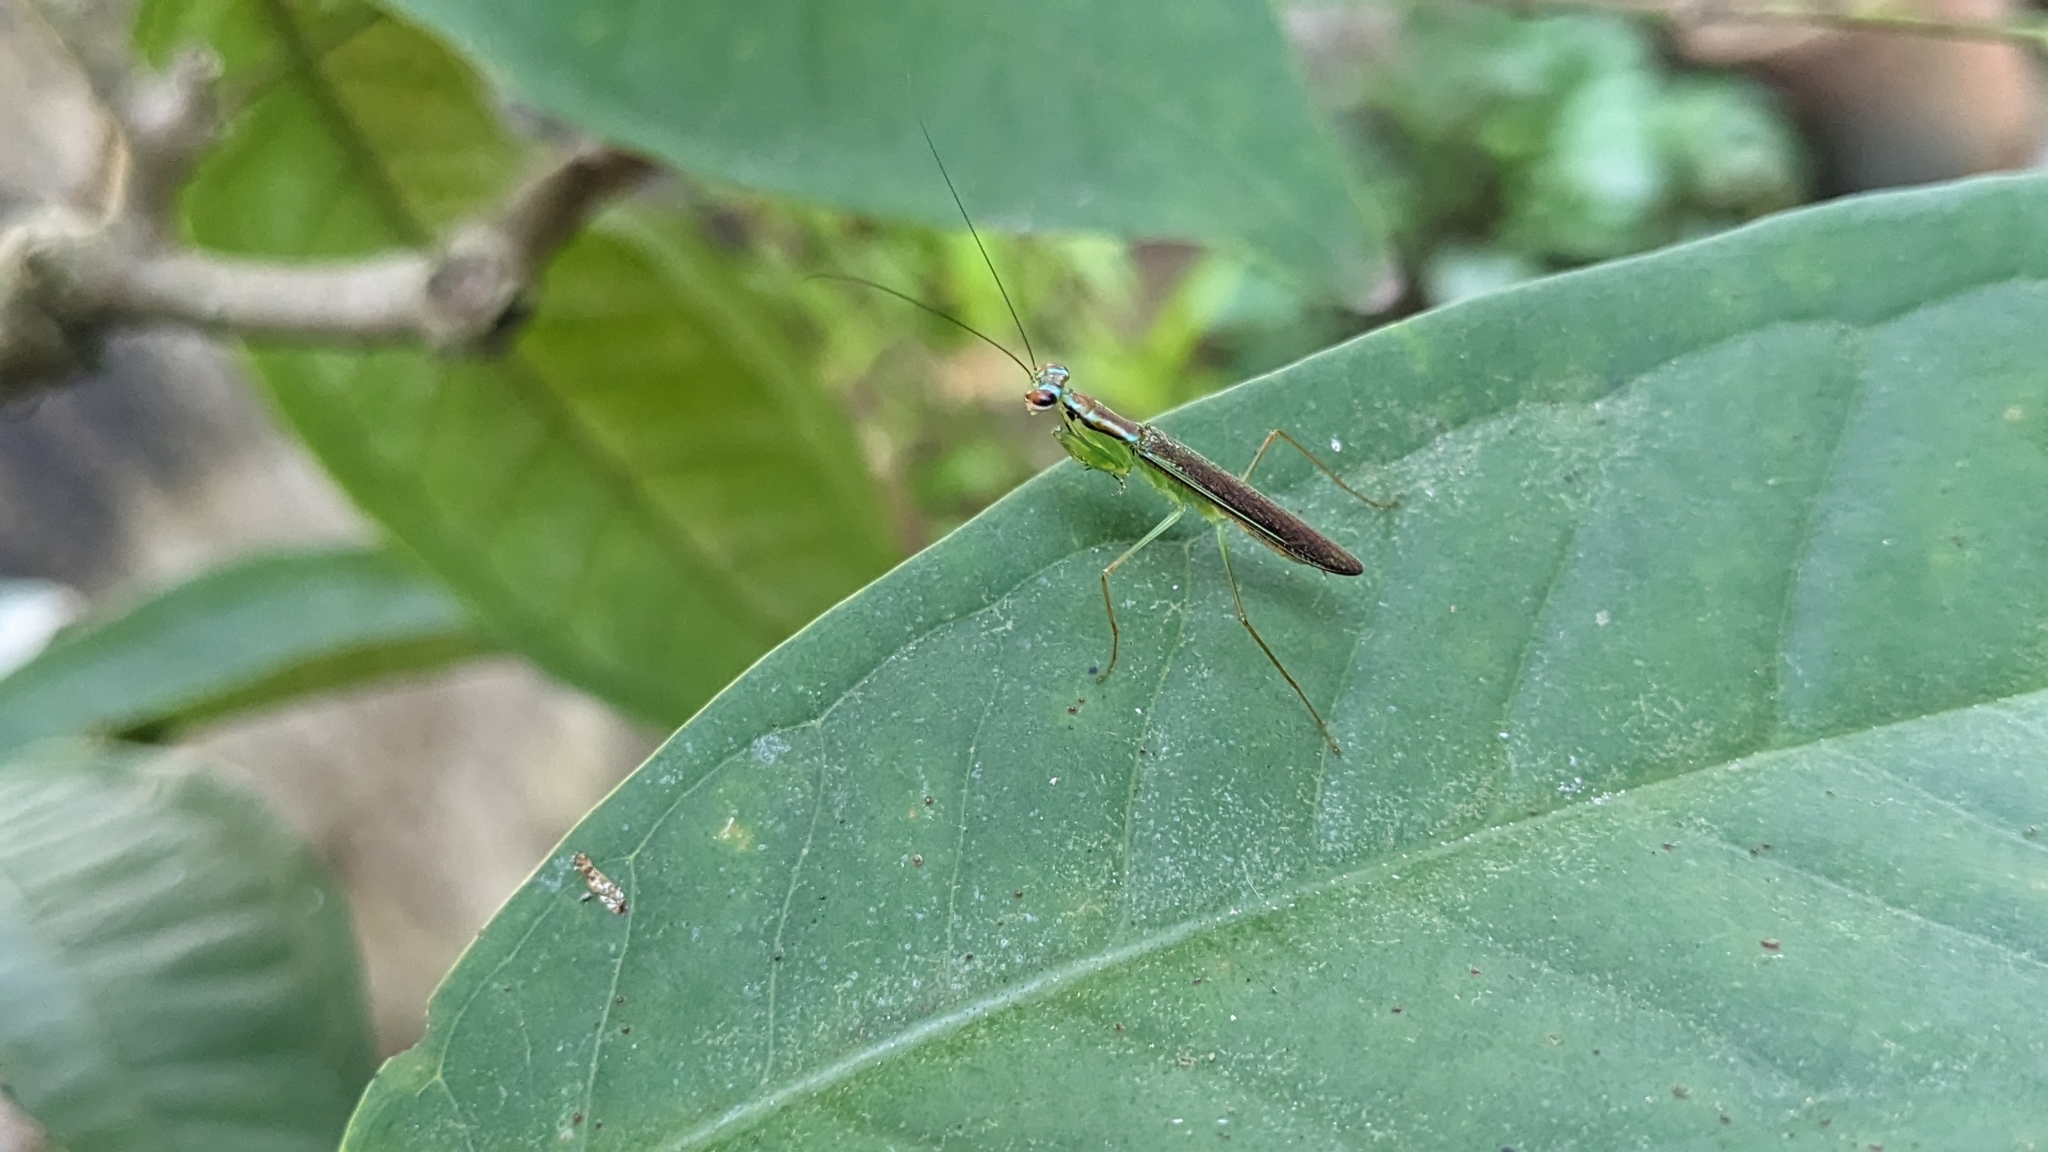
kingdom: Animalia
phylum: Arthropoda
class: Insecta
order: Mantodea
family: Gonypetidae
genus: Hapalopeza
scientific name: Hapalopeza nilgirica
